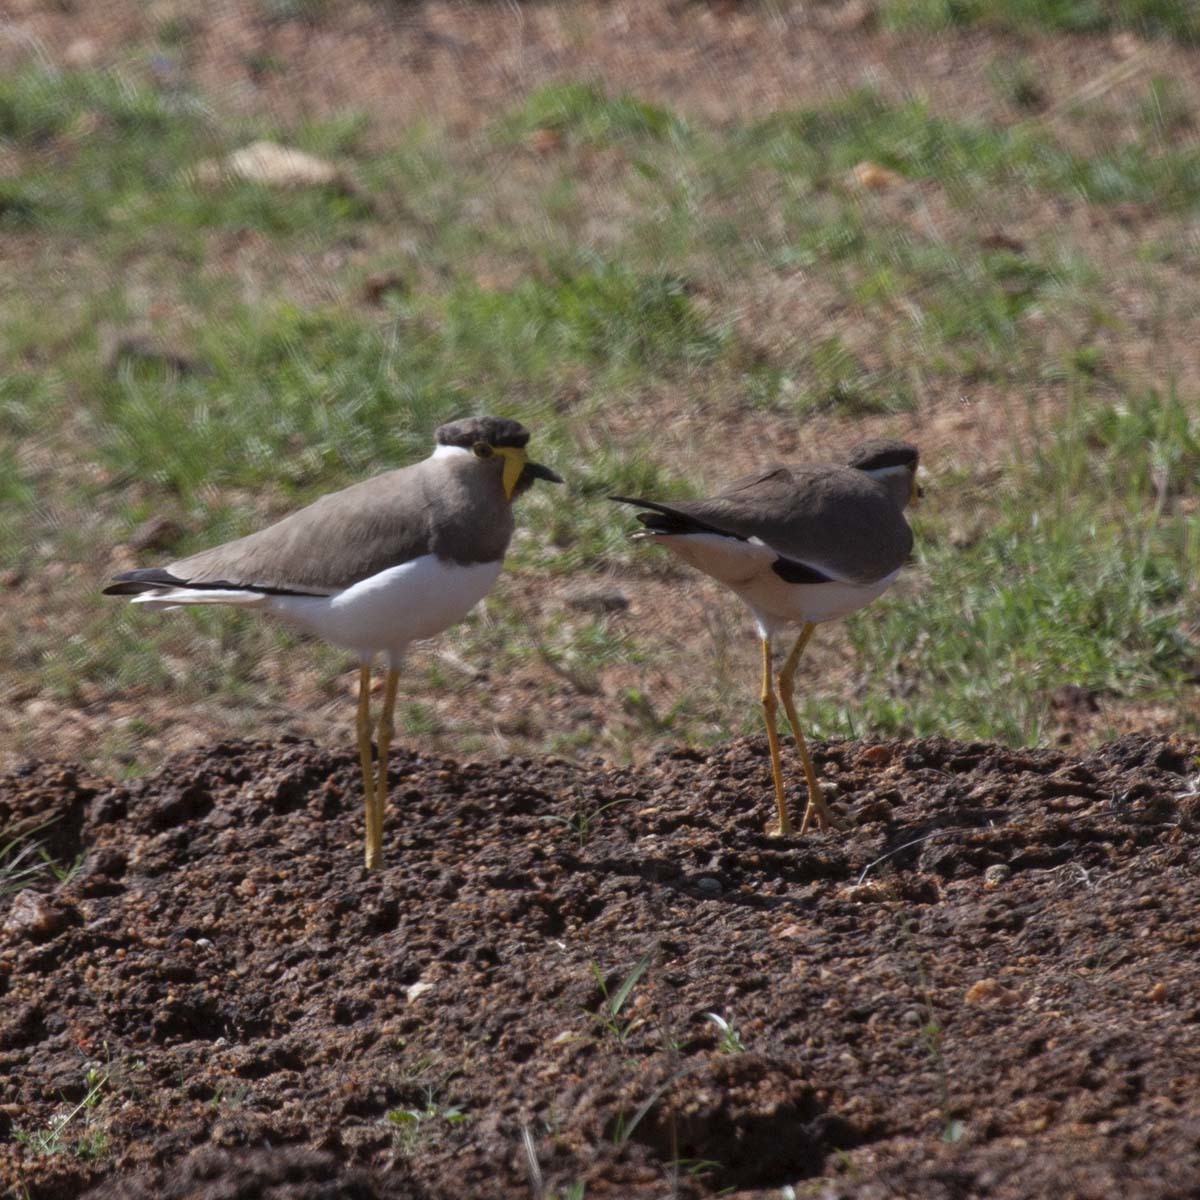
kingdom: Animalia
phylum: Chordata
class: Aves
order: Charadriiformes
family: Charadriidae
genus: Vanellus
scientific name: Vanellus malabaricus
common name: Yellow-wattled lapwing
